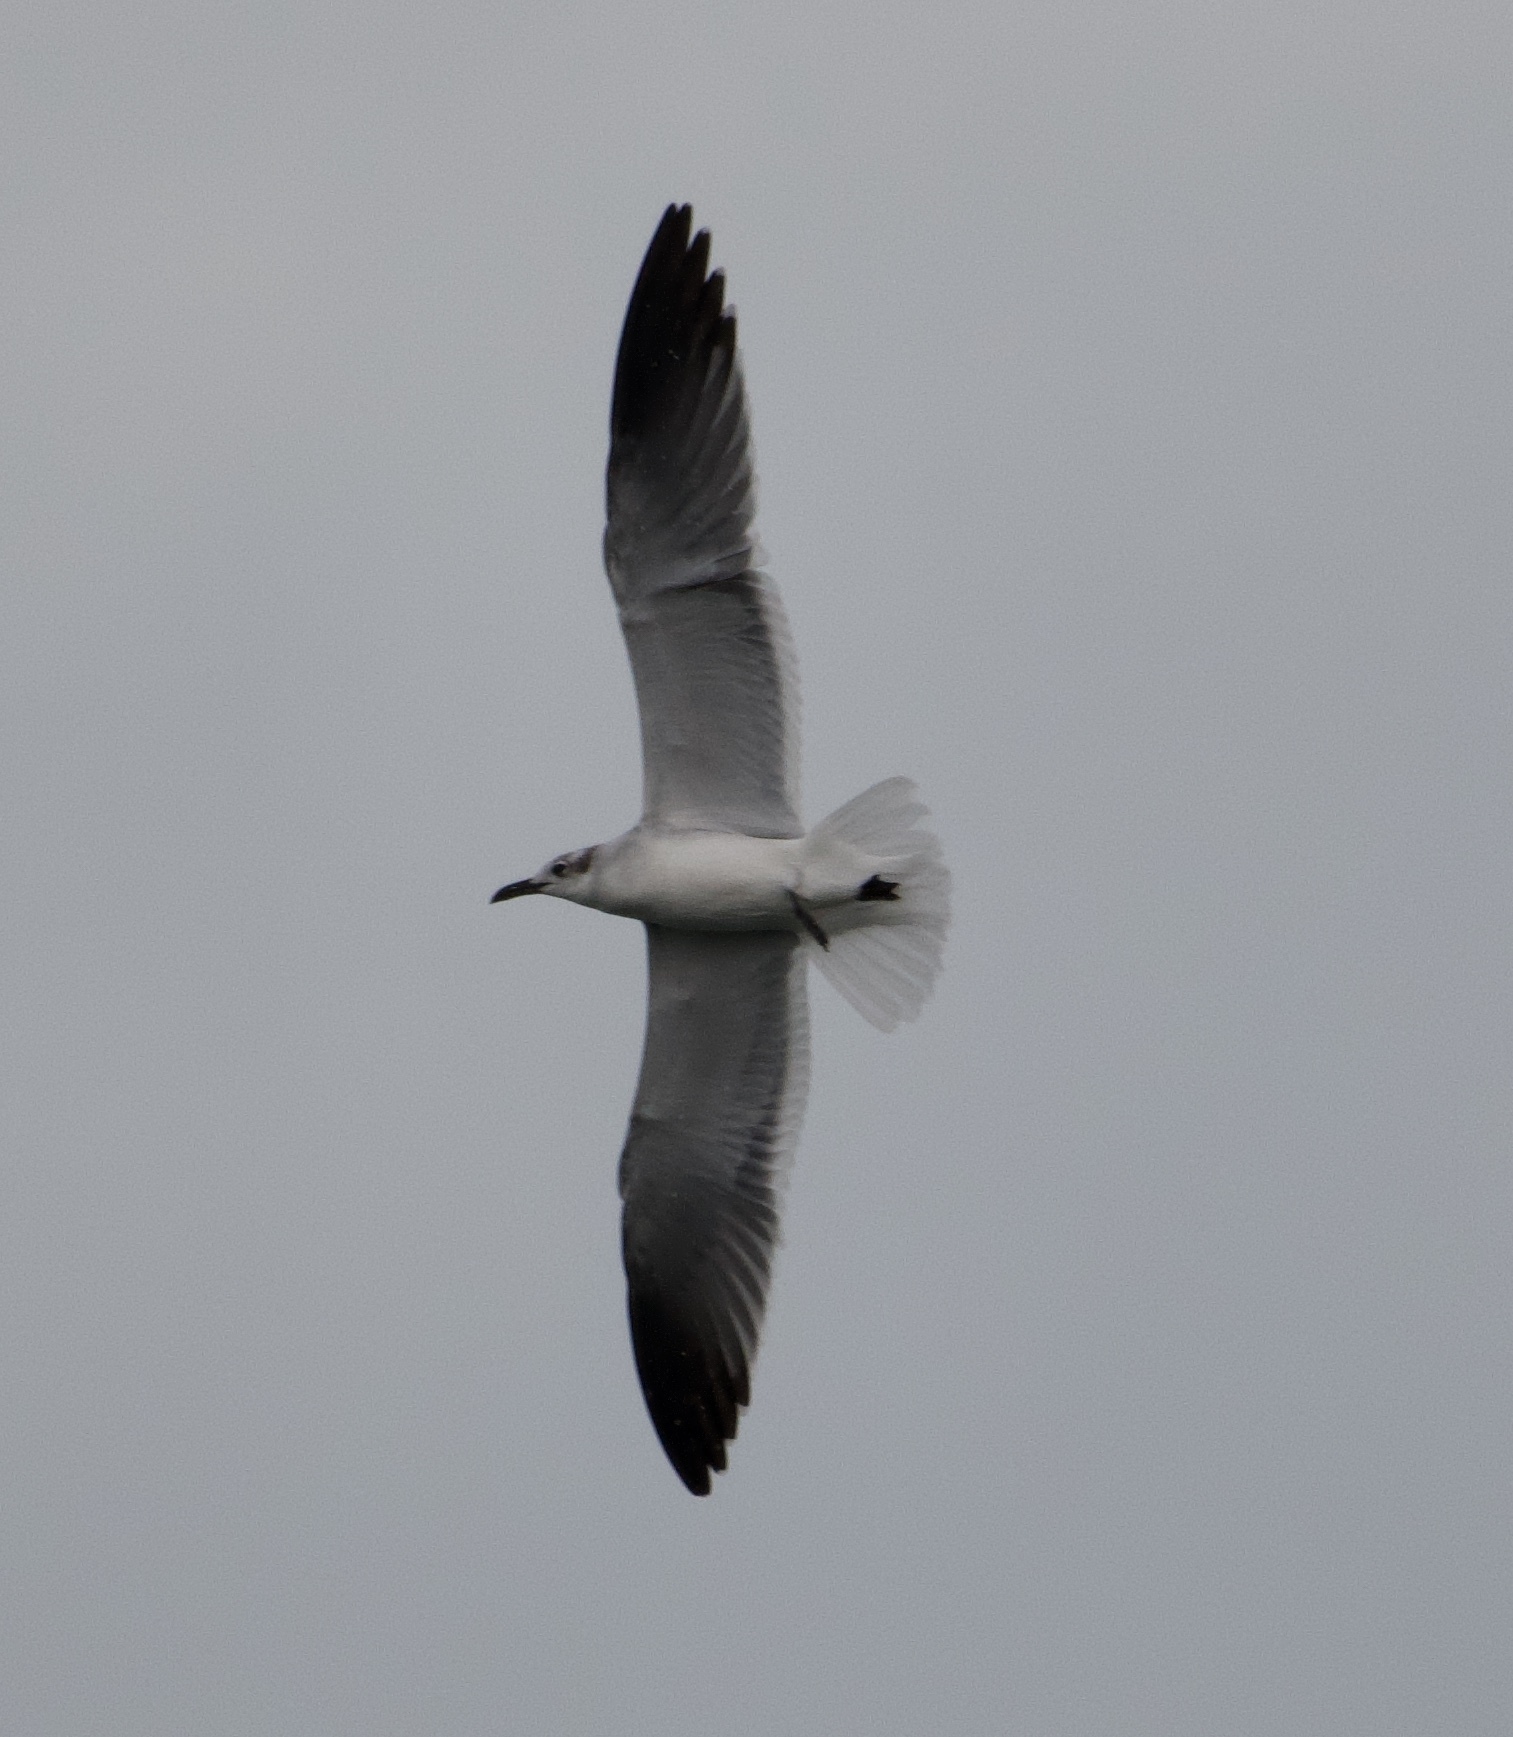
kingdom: Animalia
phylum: Chordata
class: Aves
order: Charadriiformes
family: Laridae
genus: Leucophaeus
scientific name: Leucophaeus atricilla
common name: Laughing gull
